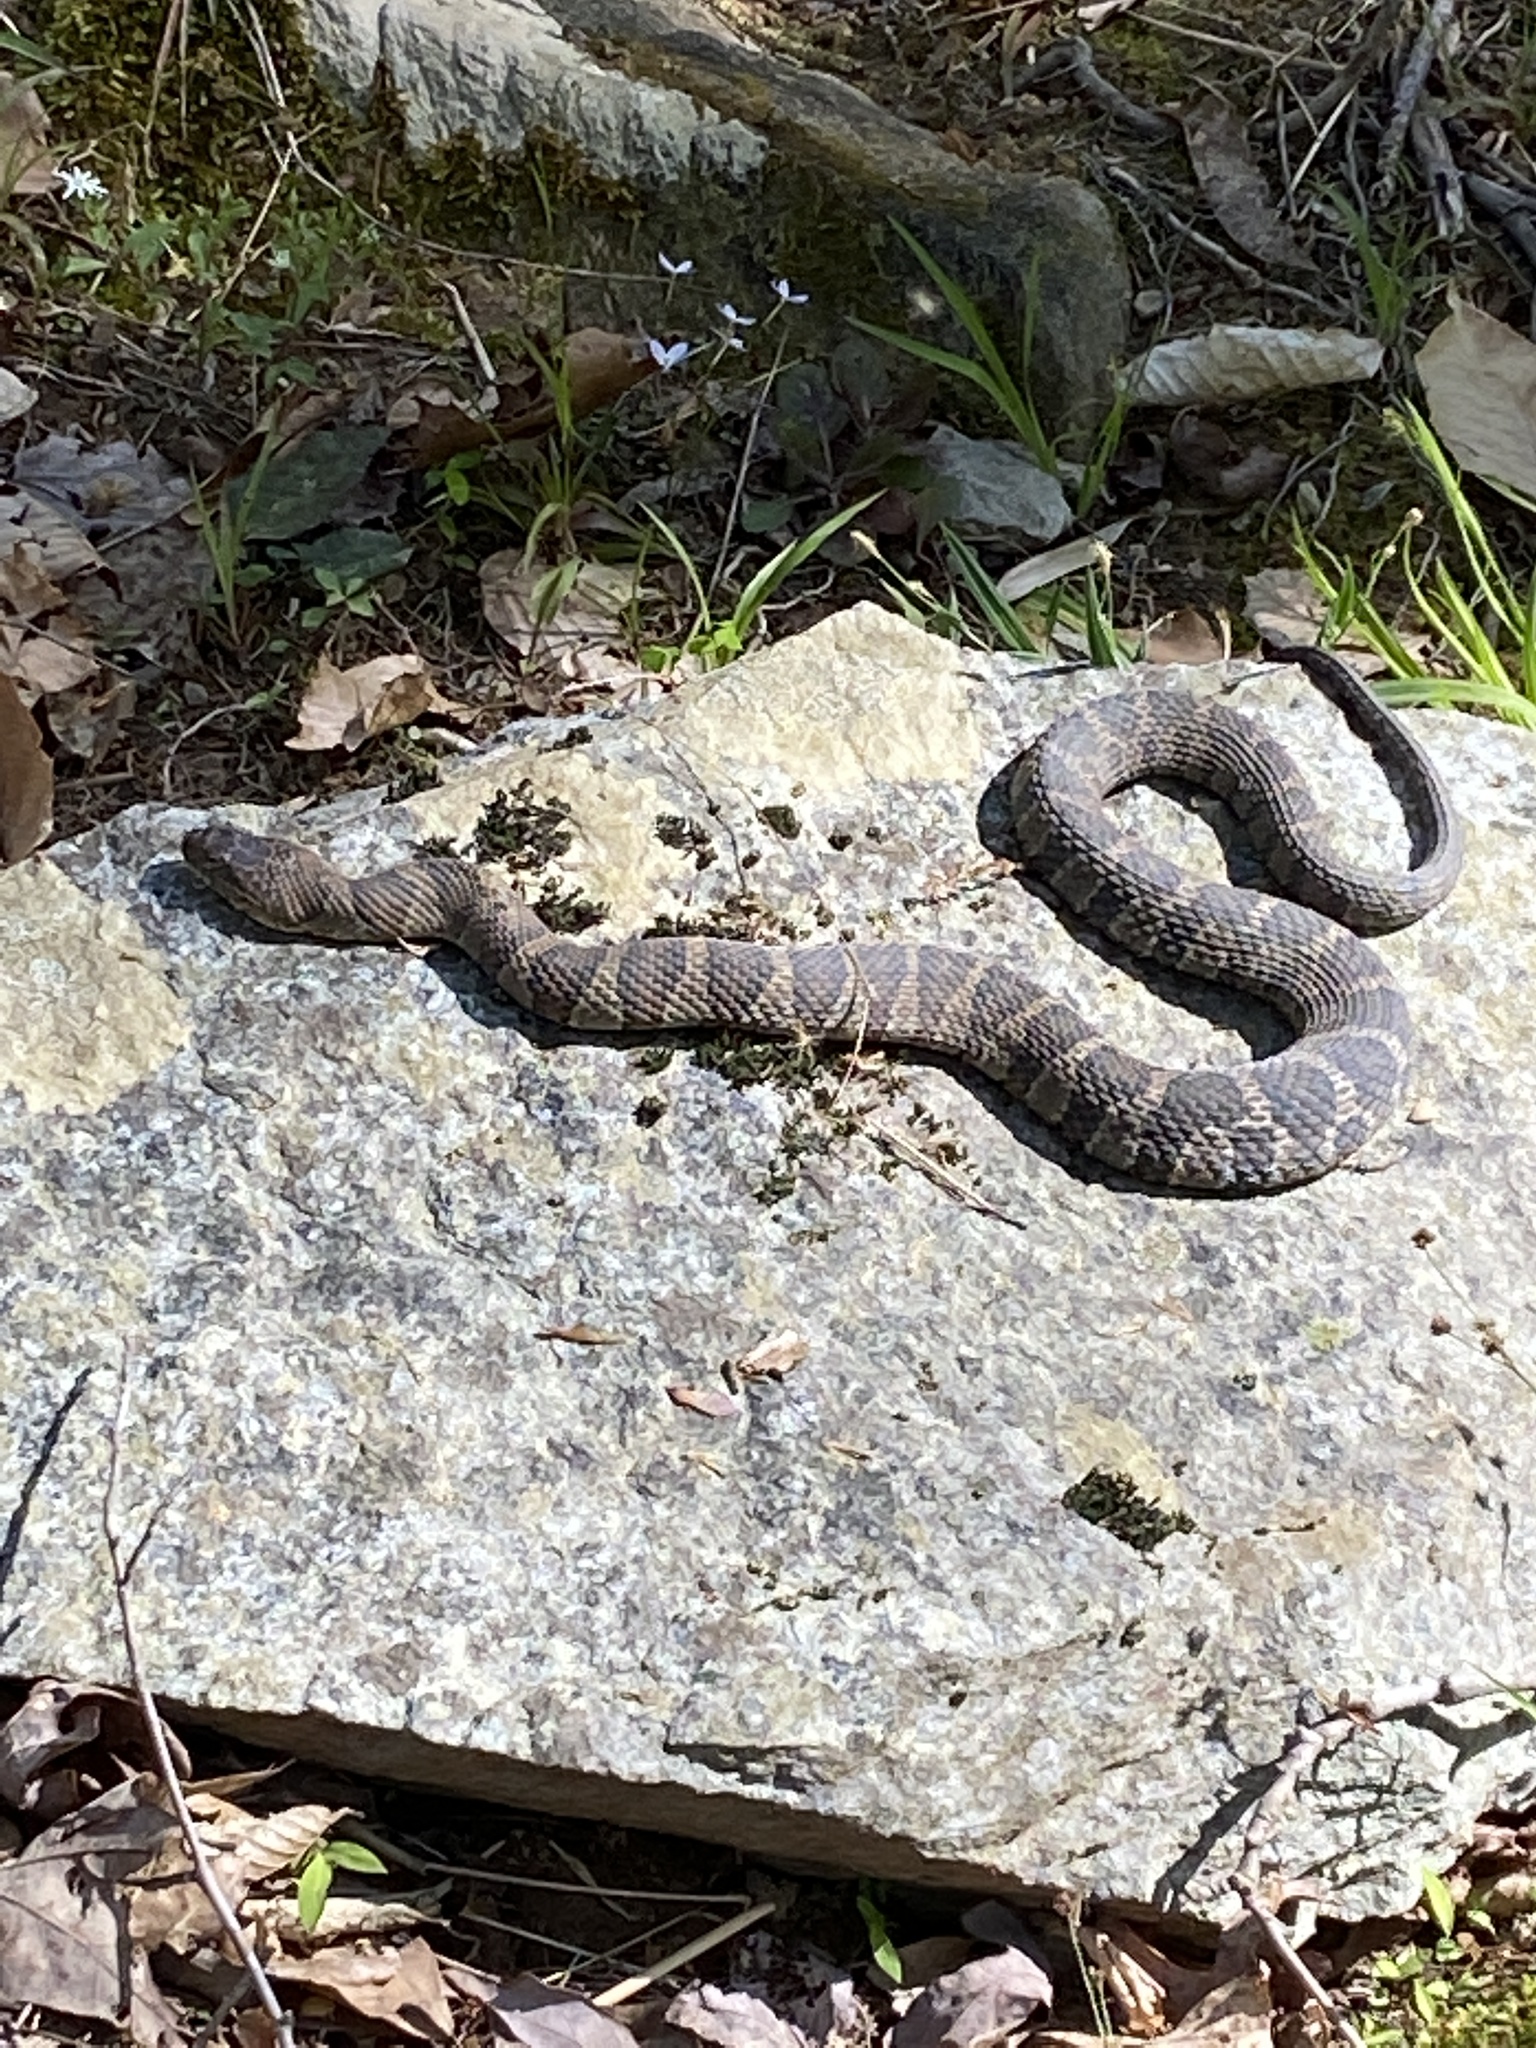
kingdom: Animalia
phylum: Chordata
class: Squamata
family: Colubridae
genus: Nerodia
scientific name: Nerodia sipedon
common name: Northern water snake
